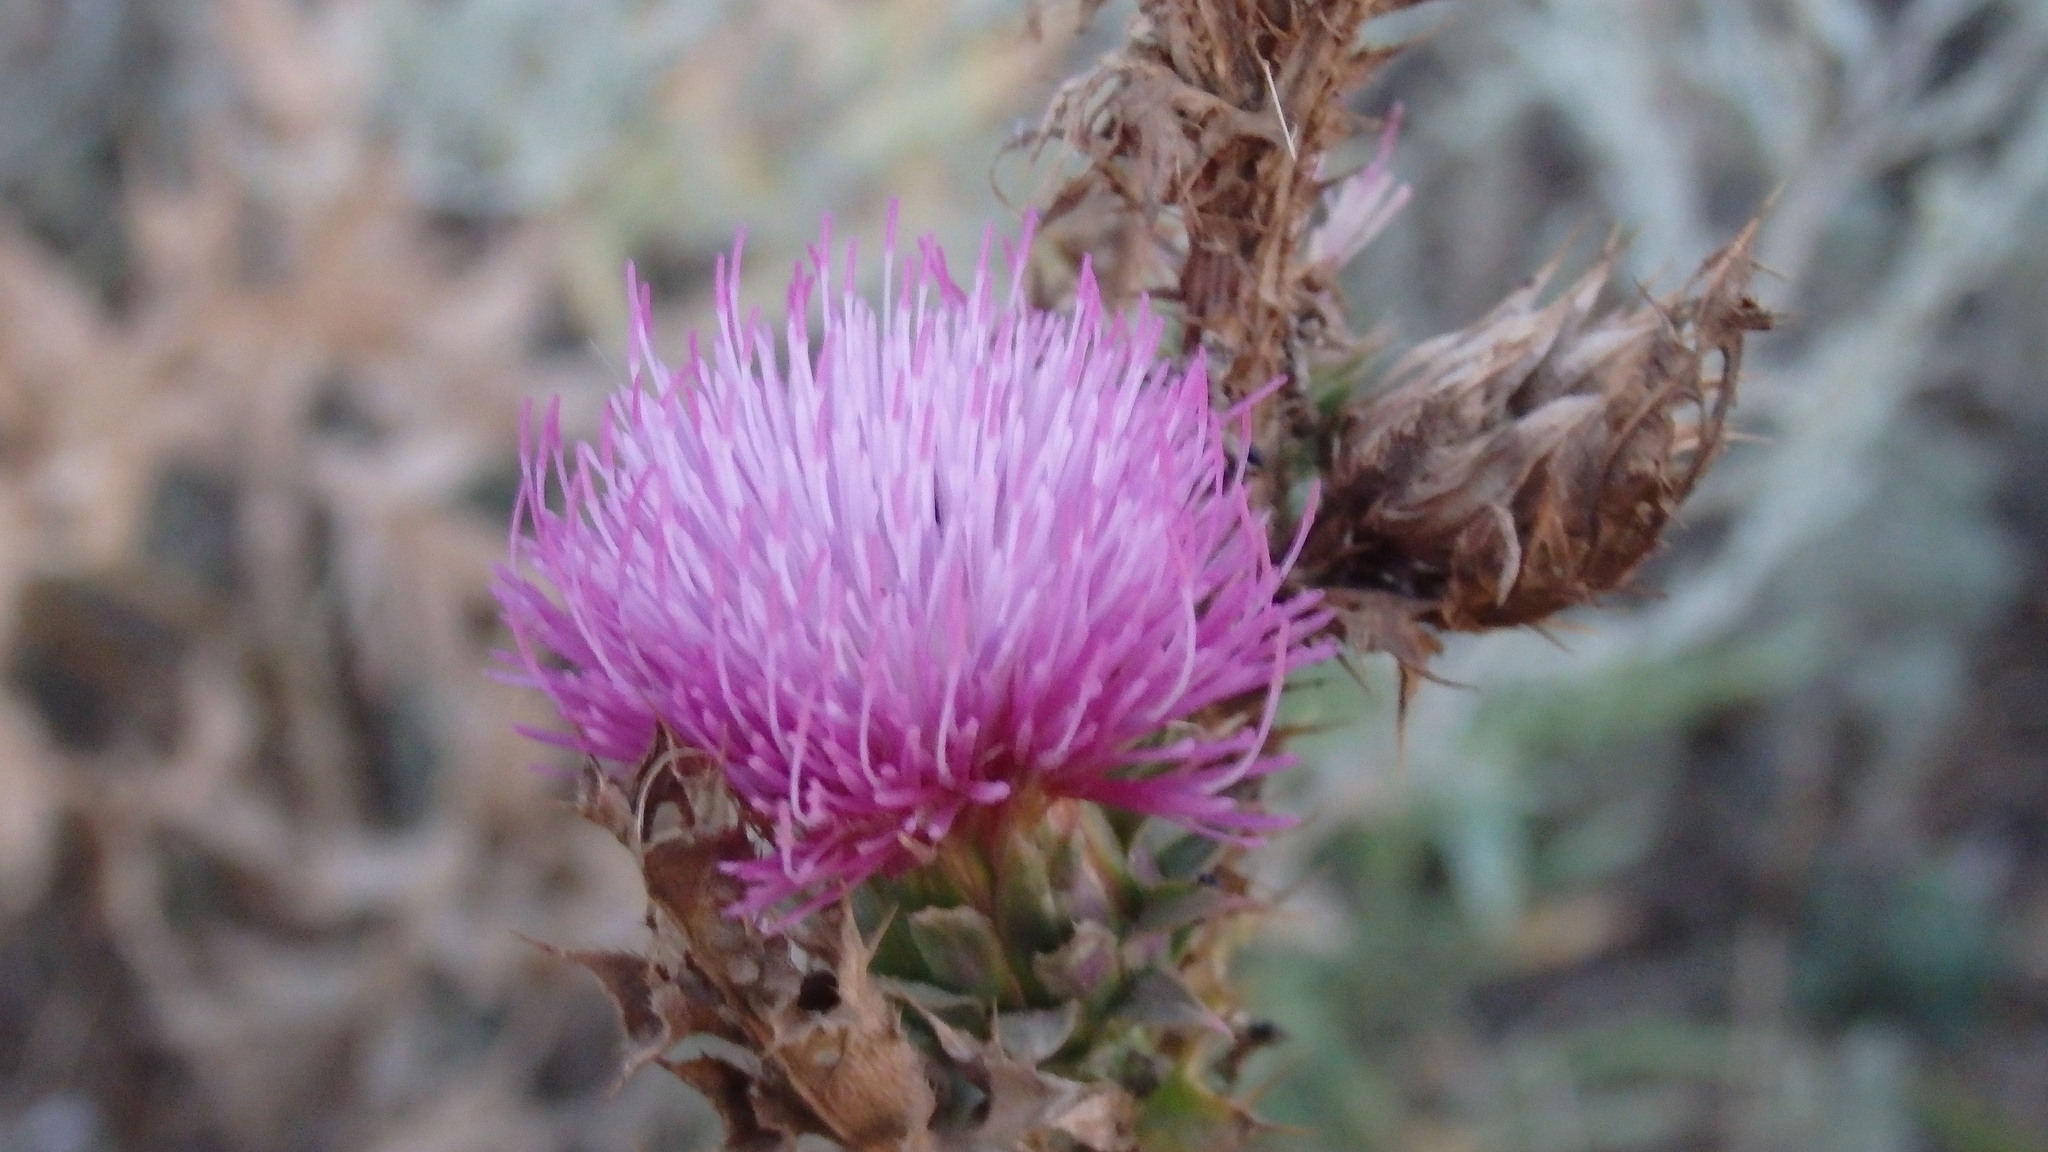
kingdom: Plantae
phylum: Tracheophyta
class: Magnoliopsida
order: Asterales
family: Asteraceae
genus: Carduus
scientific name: Carduus nutans
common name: Musk thistle
